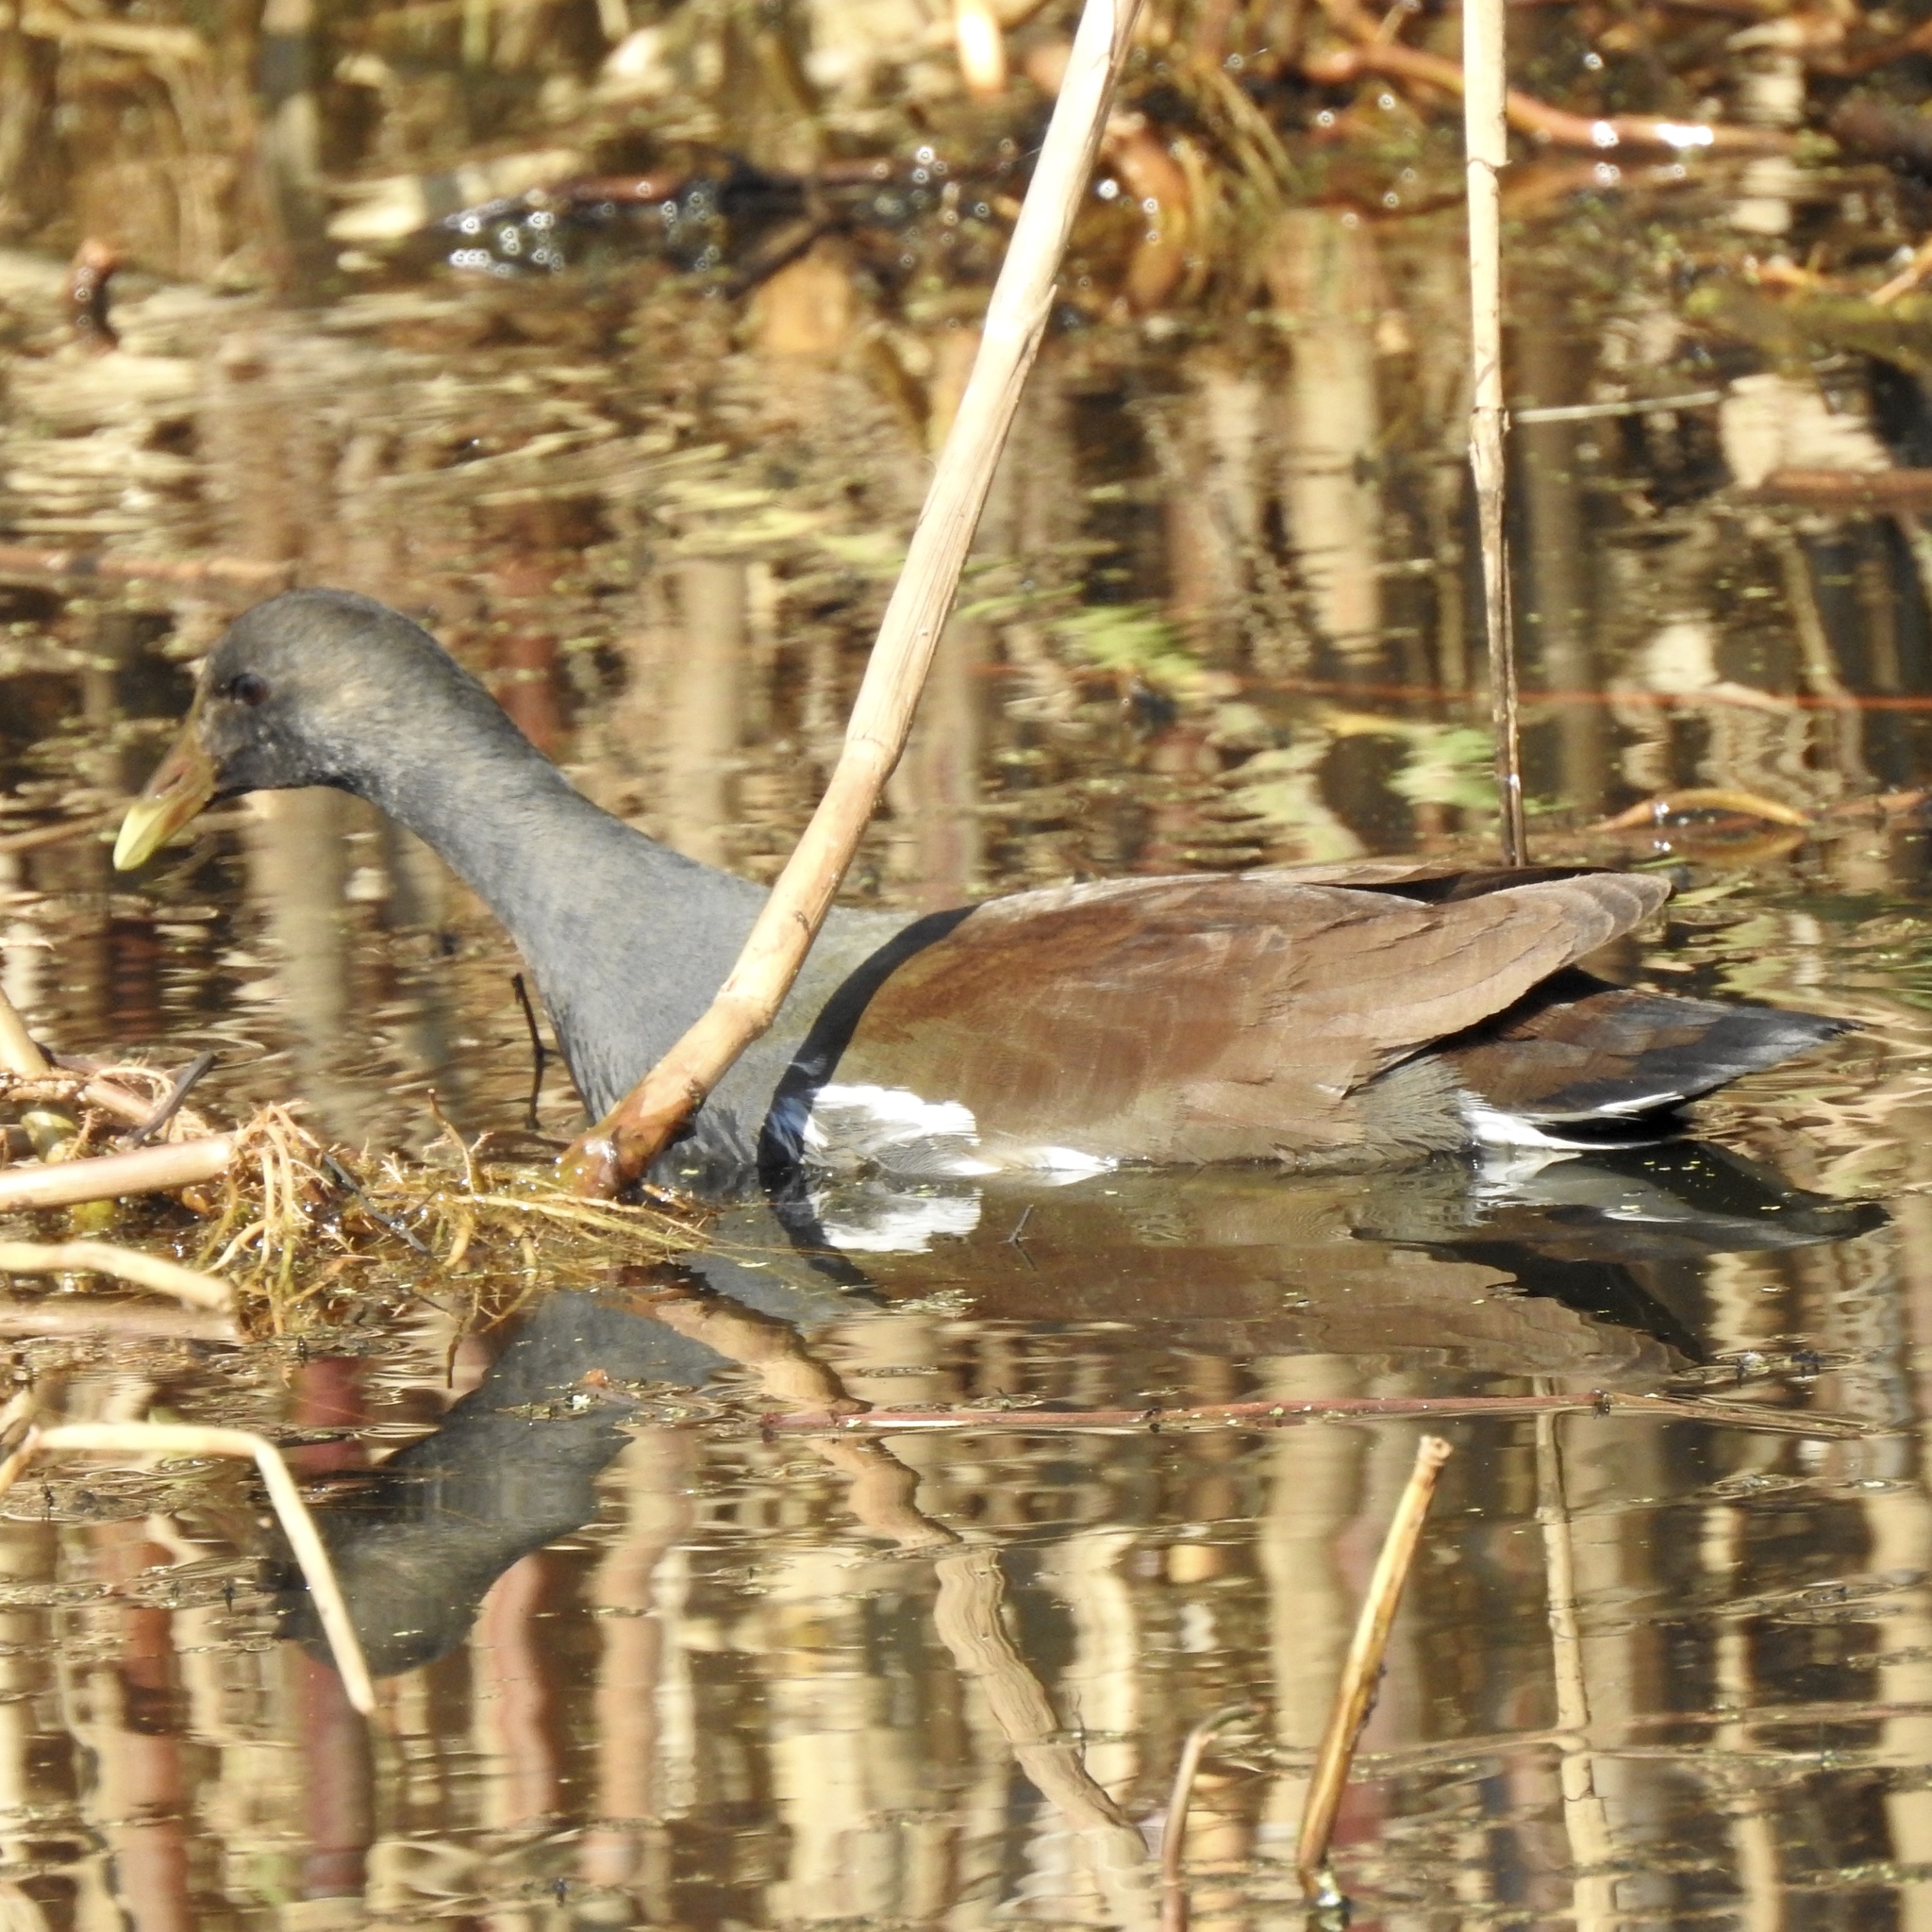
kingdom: Animalia
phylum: Chordata
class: Aves
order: Gruiformes
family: Rallidae
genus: Gallinula
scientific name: Gallinula chloropus
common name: Common moorhen
